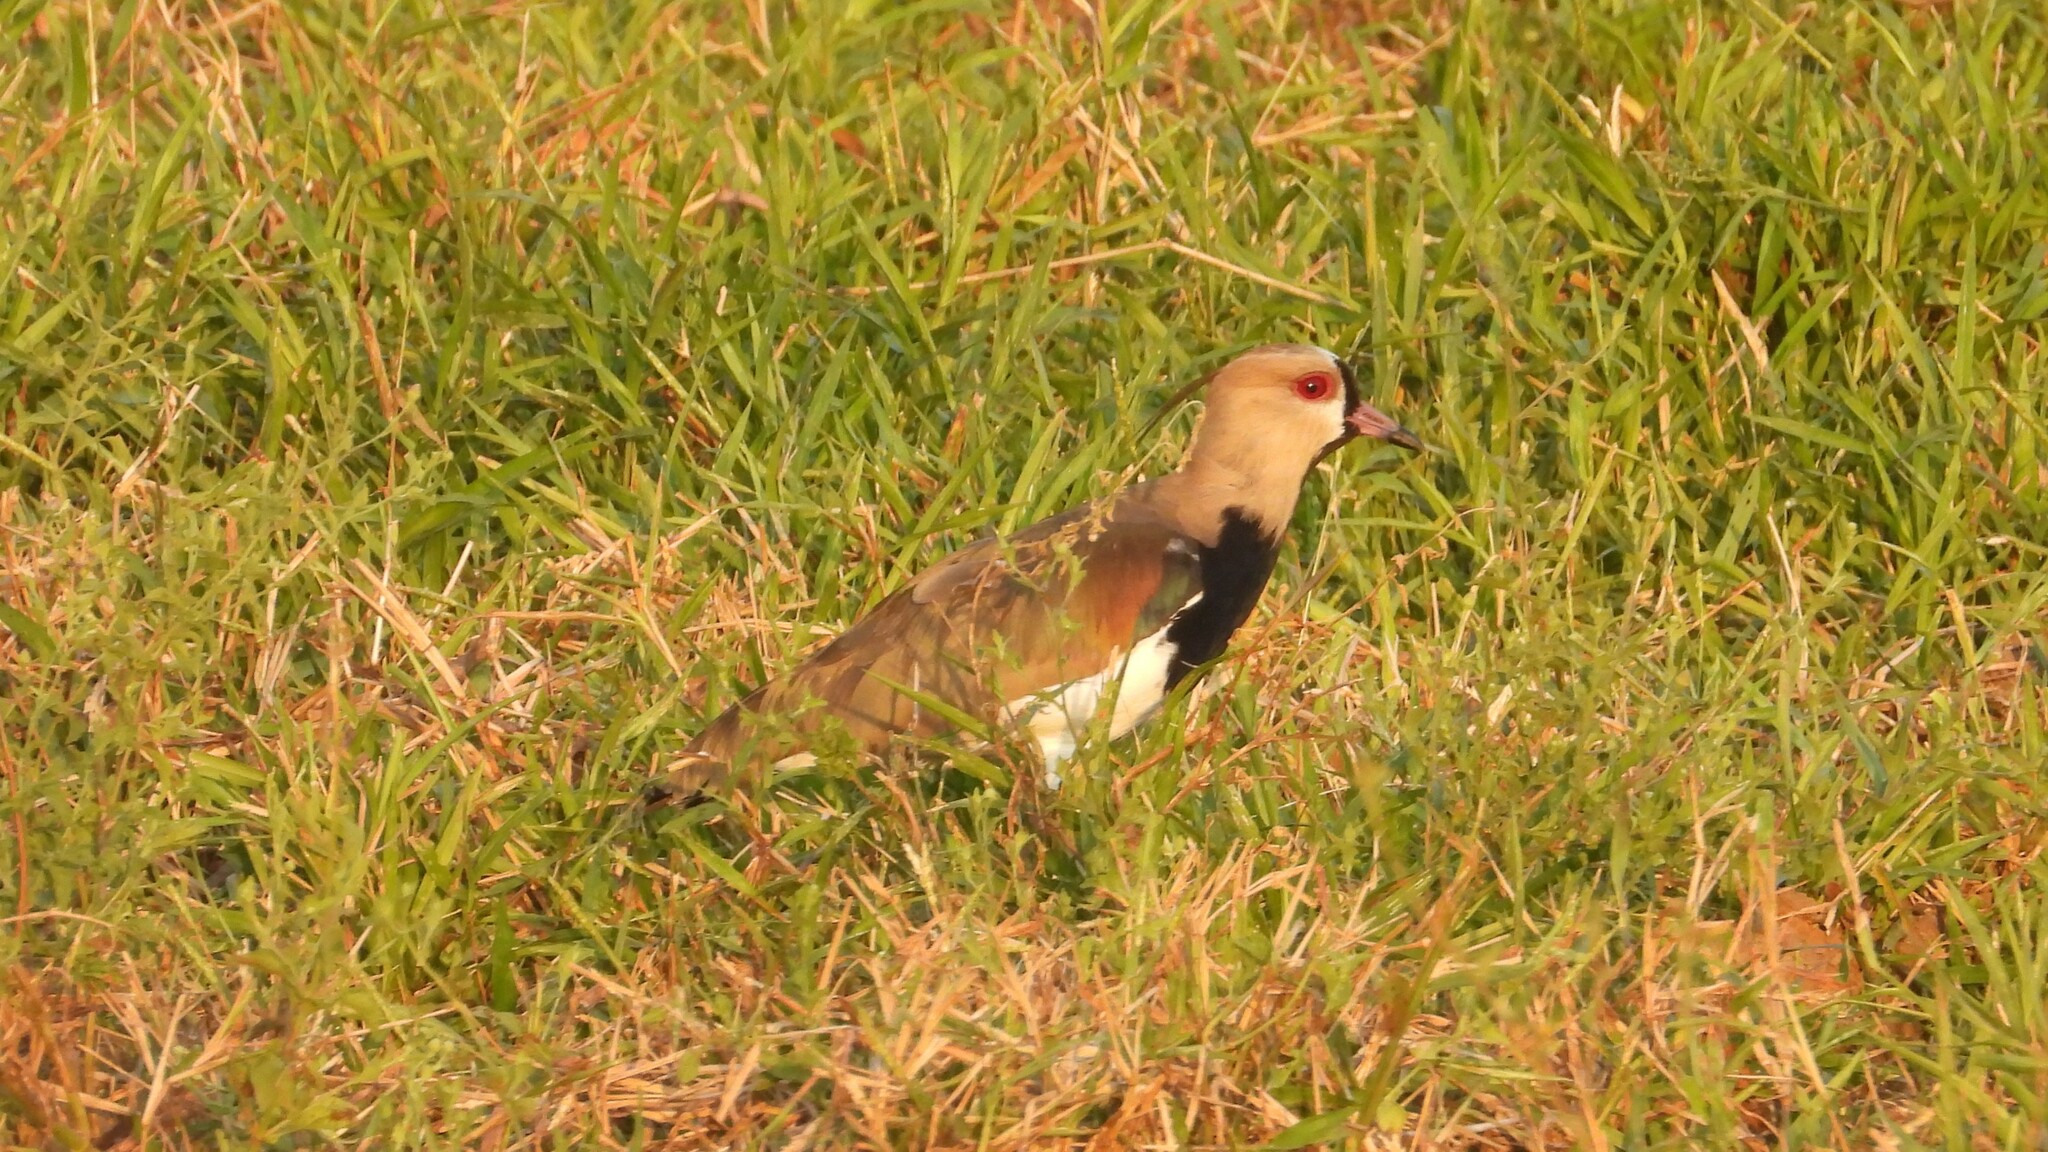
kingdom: Animalia
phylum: Chordata
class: Aves
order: Charadriiformes
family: Charadriidae
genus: Vanellus
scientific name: Vanellus chilensis
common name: Southern lapwing
